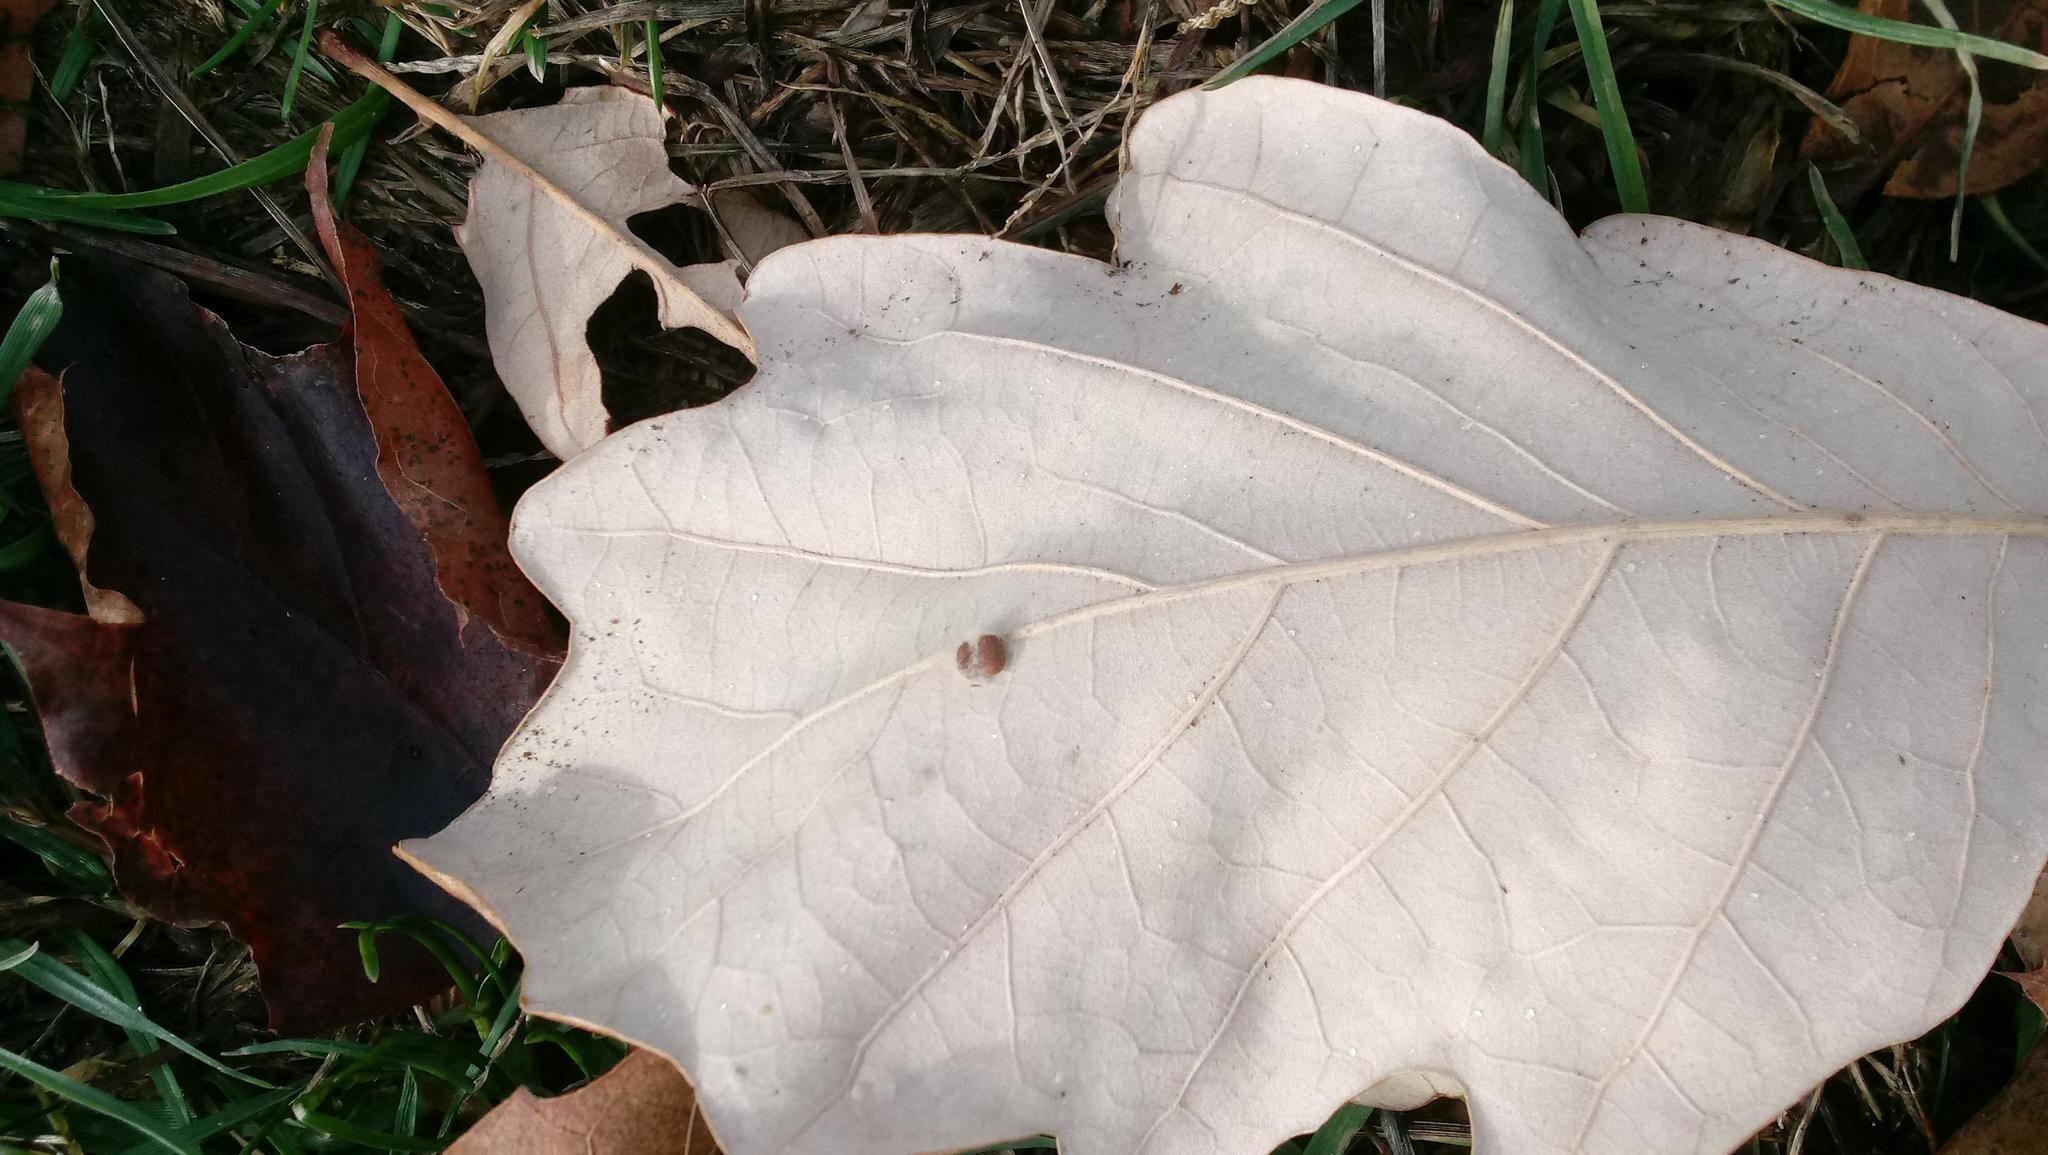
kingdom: Animalia
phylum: Arthropoda
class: Insecta
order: Hymenoptera
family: Cynipidae
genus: Andricus
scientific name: Andricus Druon ignotum
